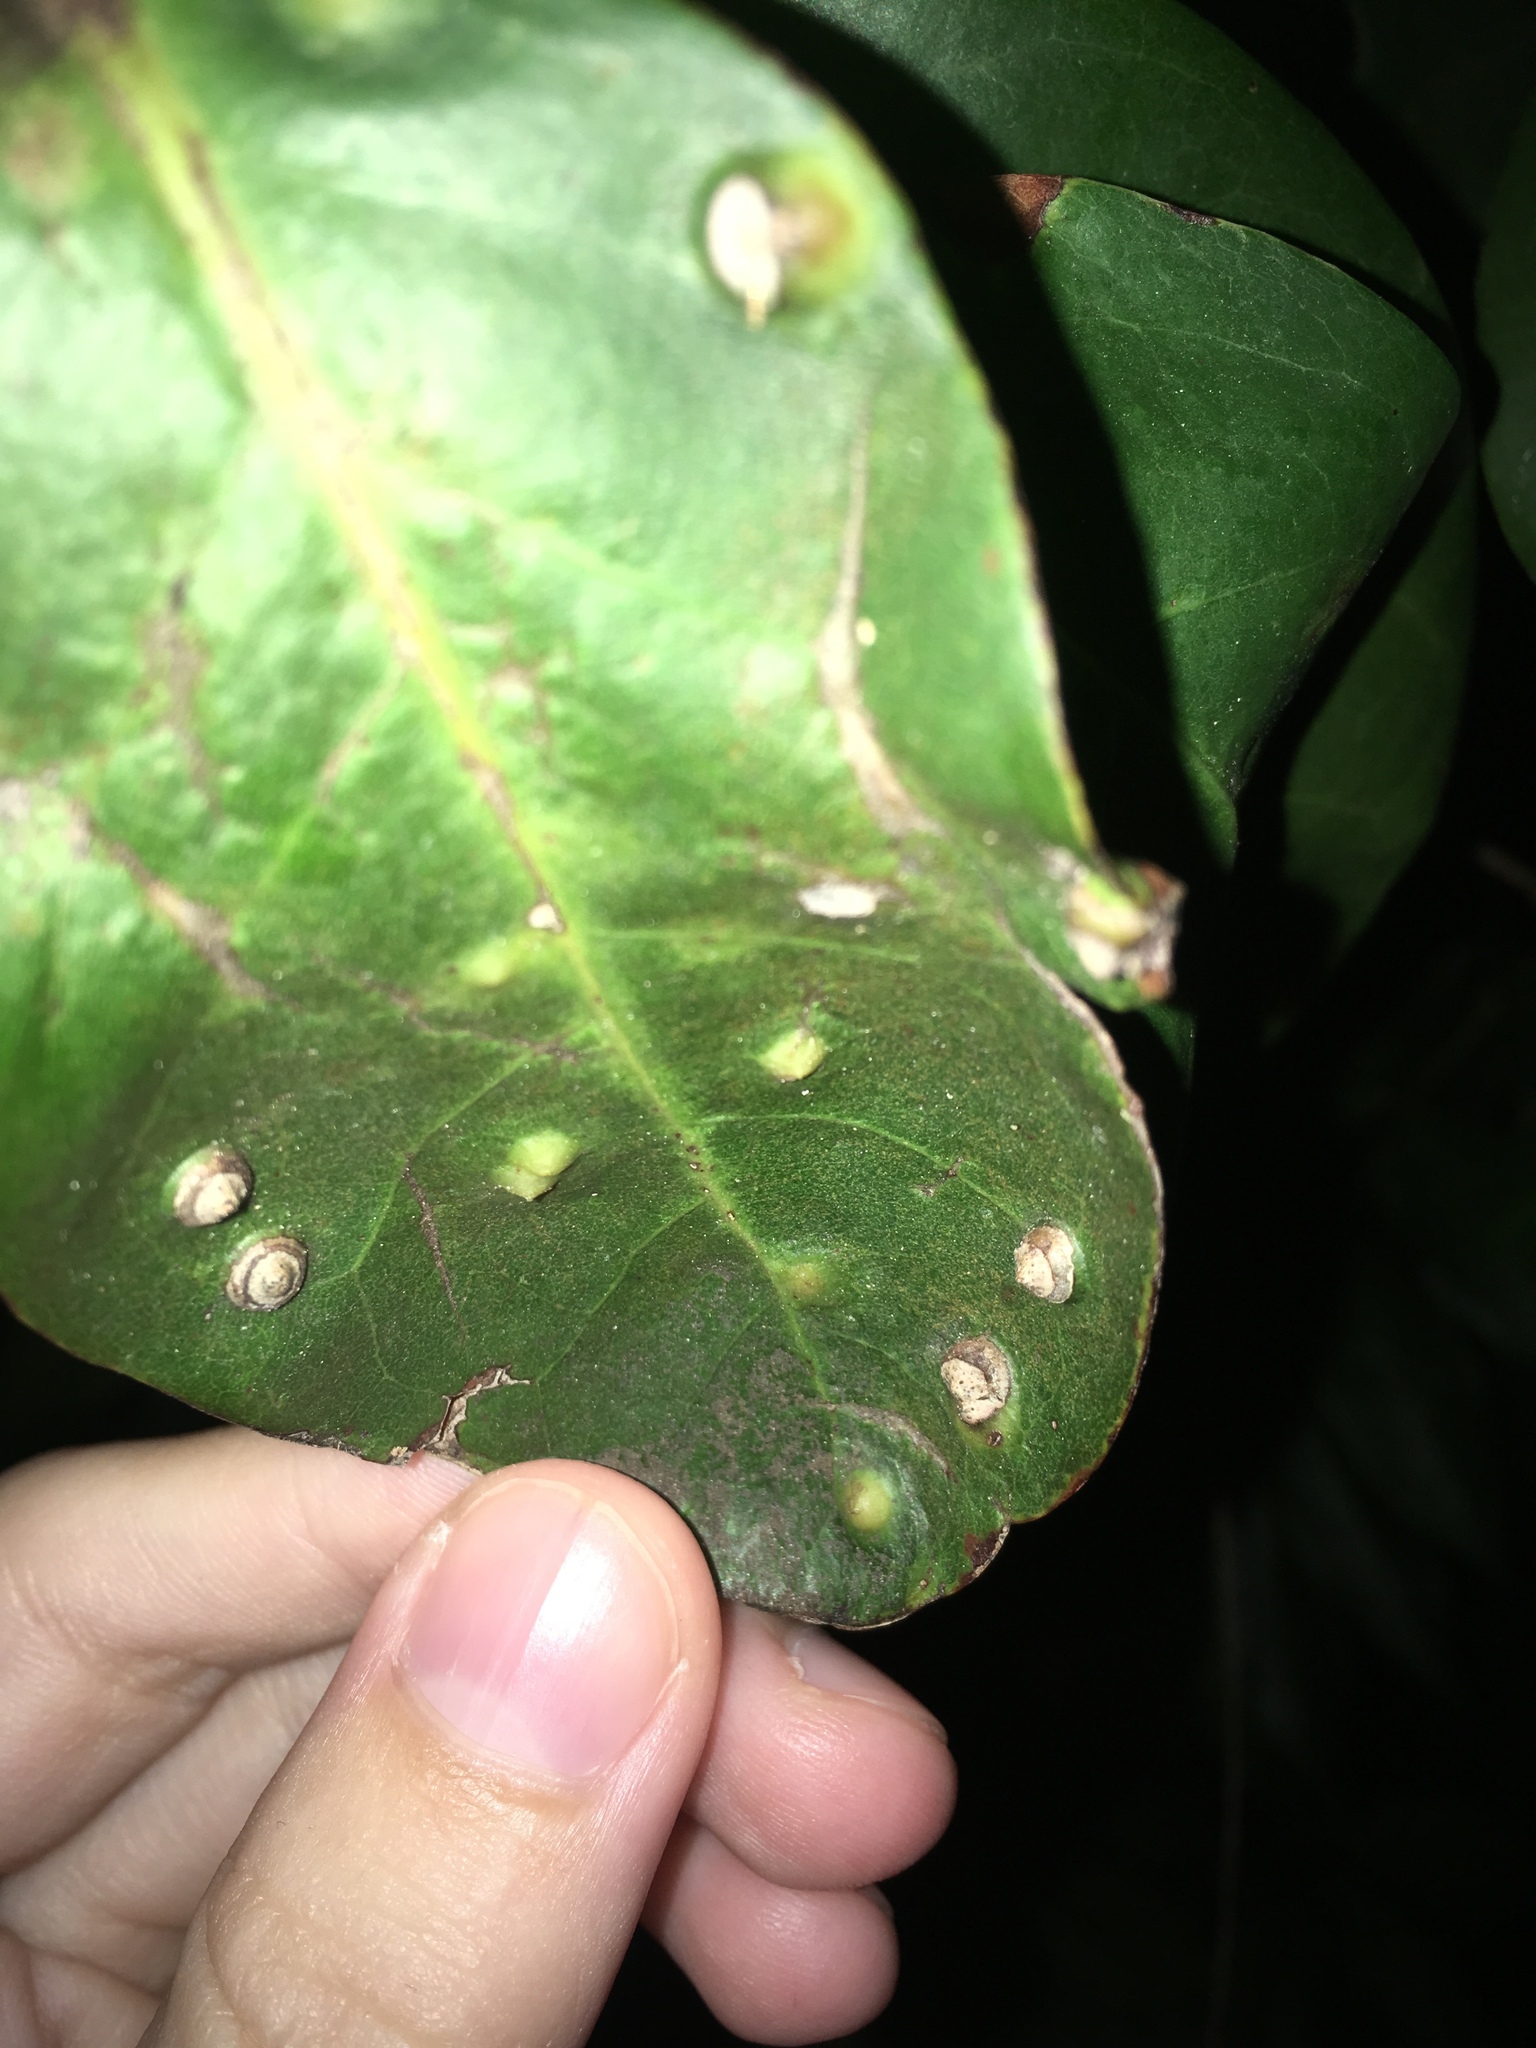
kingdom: Animalia
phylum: Arthropoda
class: Insecta
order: Diptera
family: Cecidomyiidae
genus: Ctenodactylomyia
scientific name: Ctenodactylomyia watsoni
